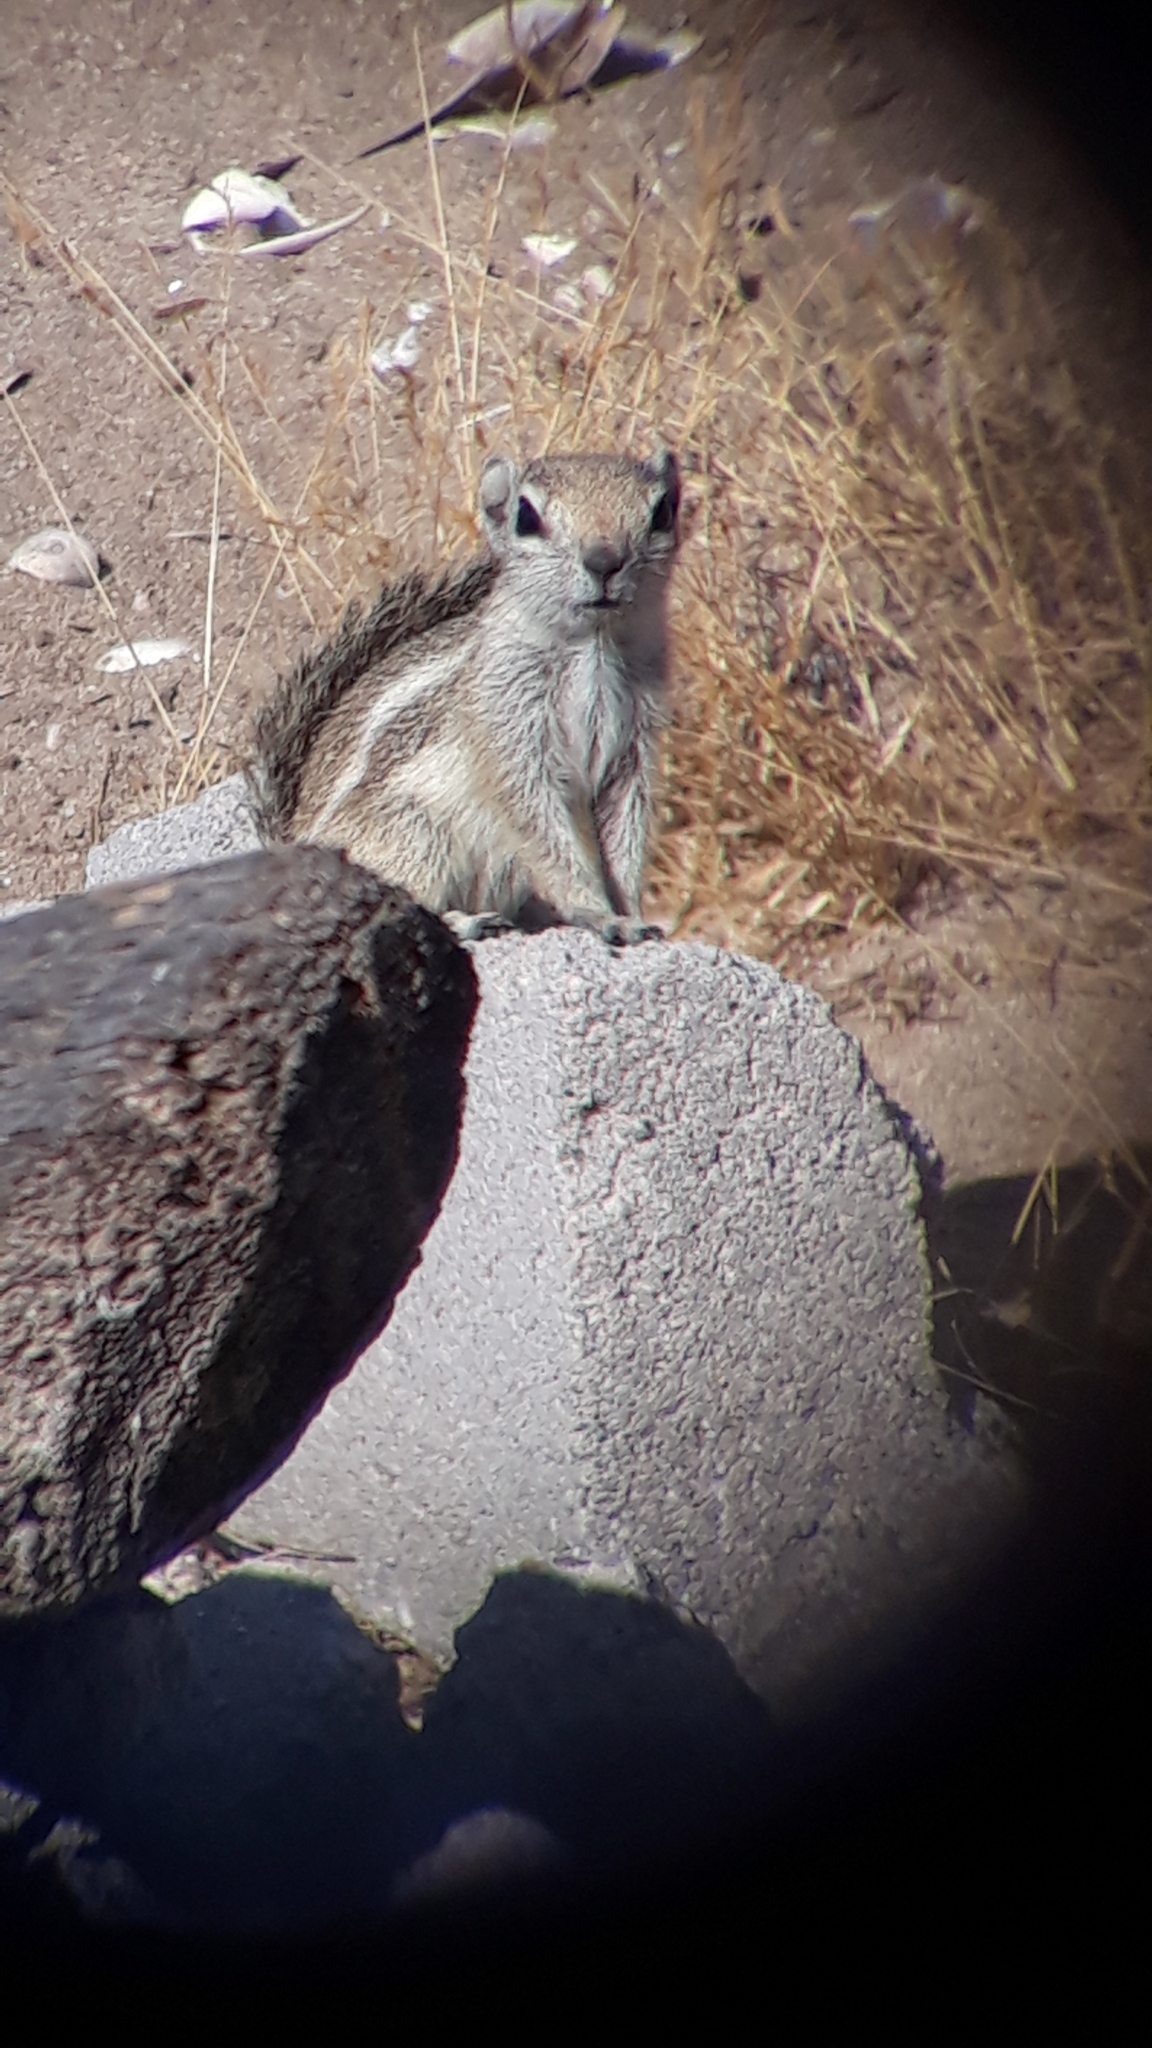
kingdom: Animalia
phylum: Chordata
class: Mammalia
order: Rodentia
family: Sciuridae
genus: Ammospermophilus
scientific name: Ammospermophilus leucurus
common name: White-tailed antelope squirrel
